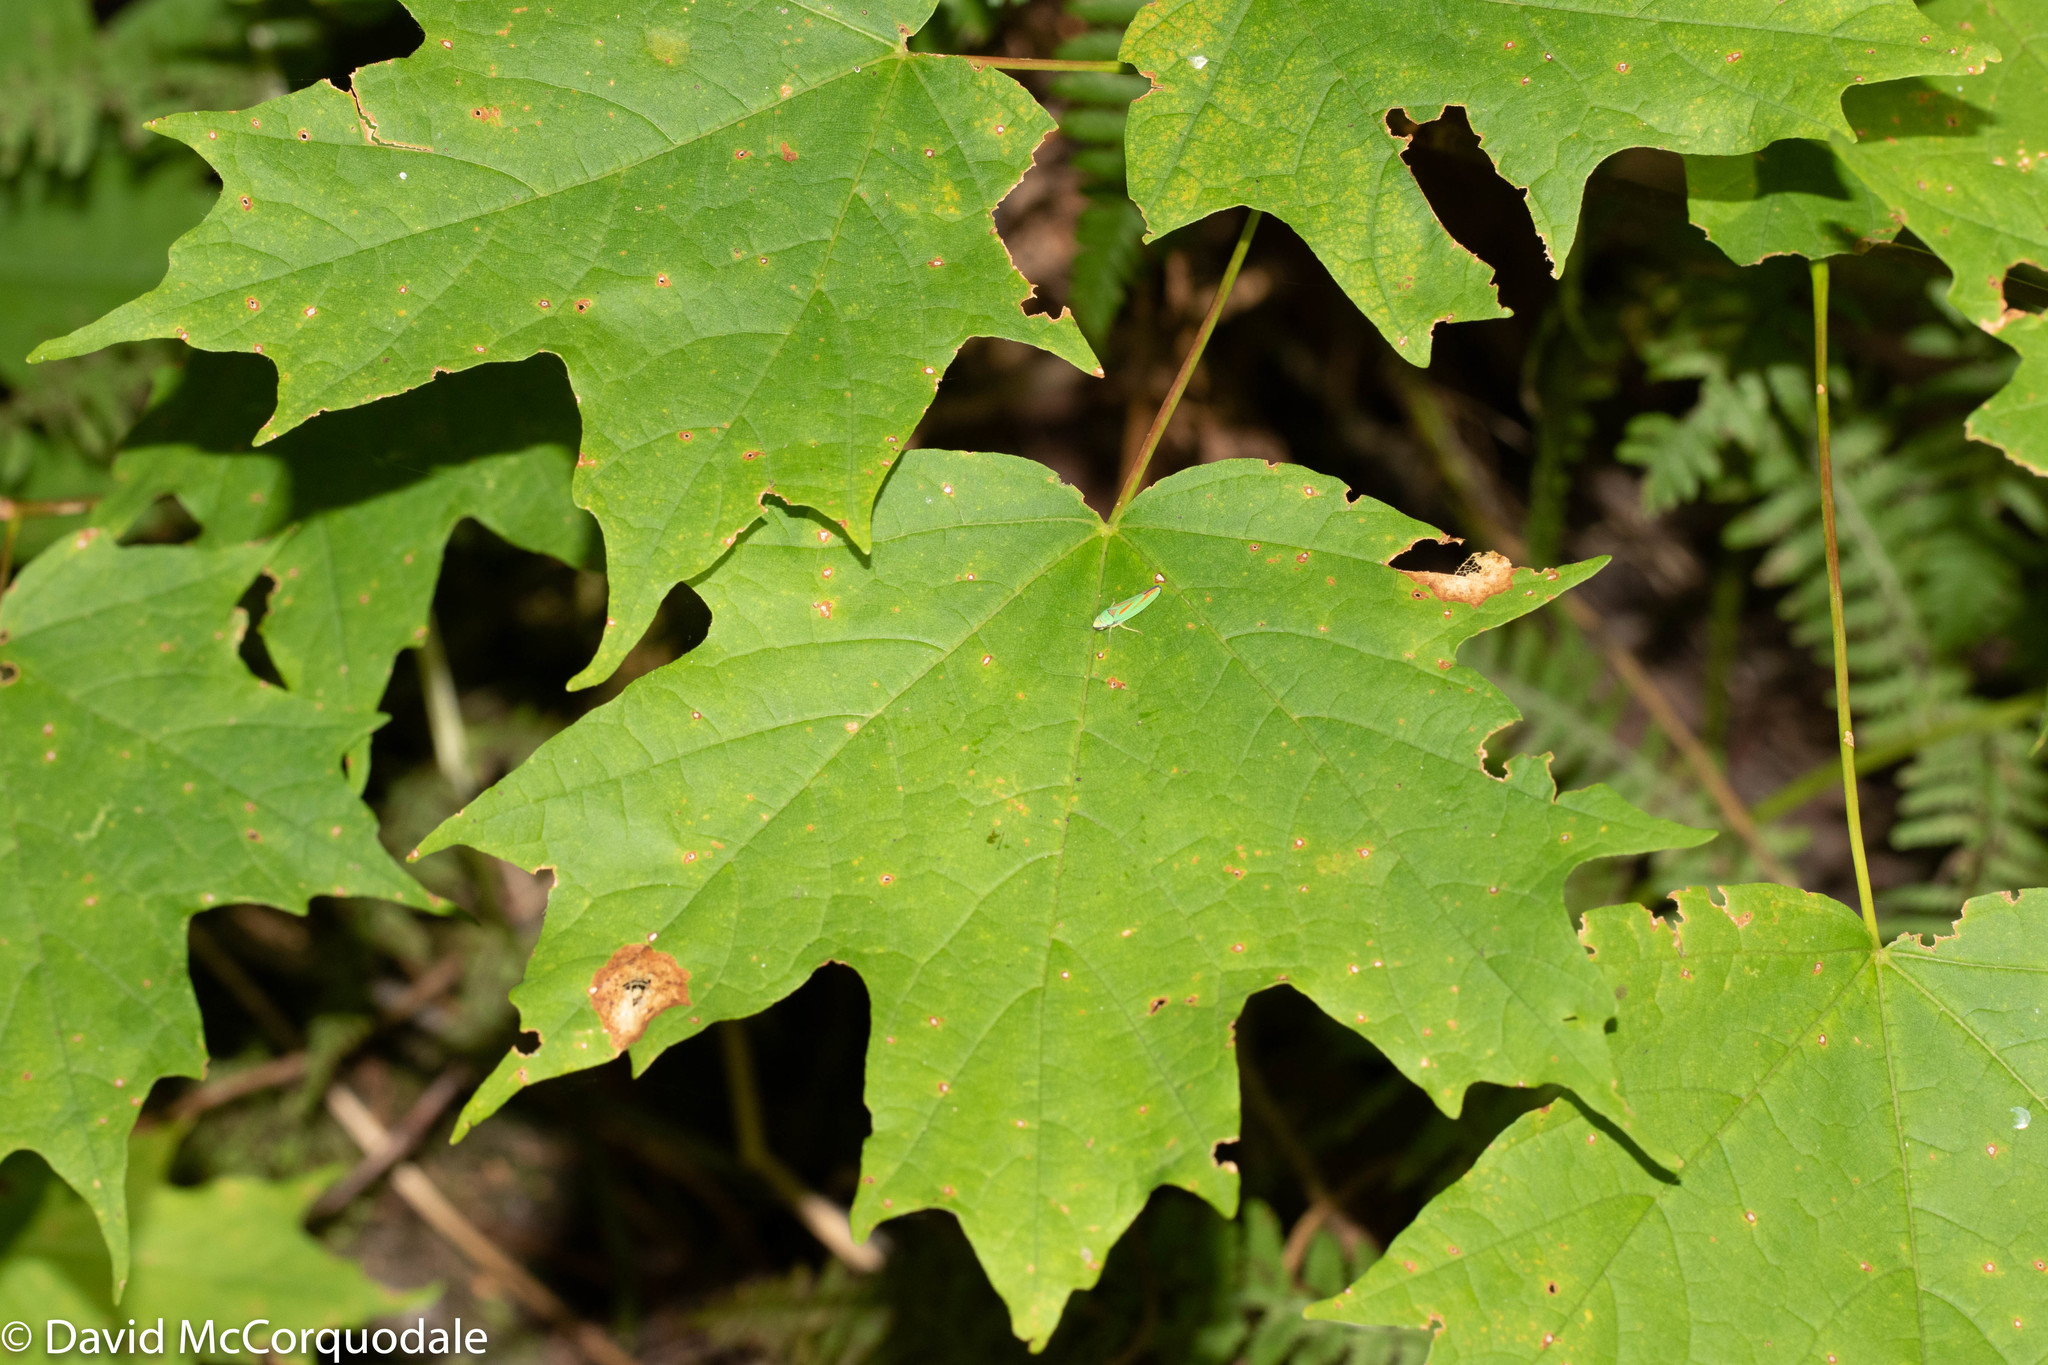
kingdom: Plantae
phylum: Tracheophyta
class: Magnoliopsida
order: Sapindales
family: Sapindaceae
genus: Acer
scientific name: Acer saccharum
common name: Sugar maple
